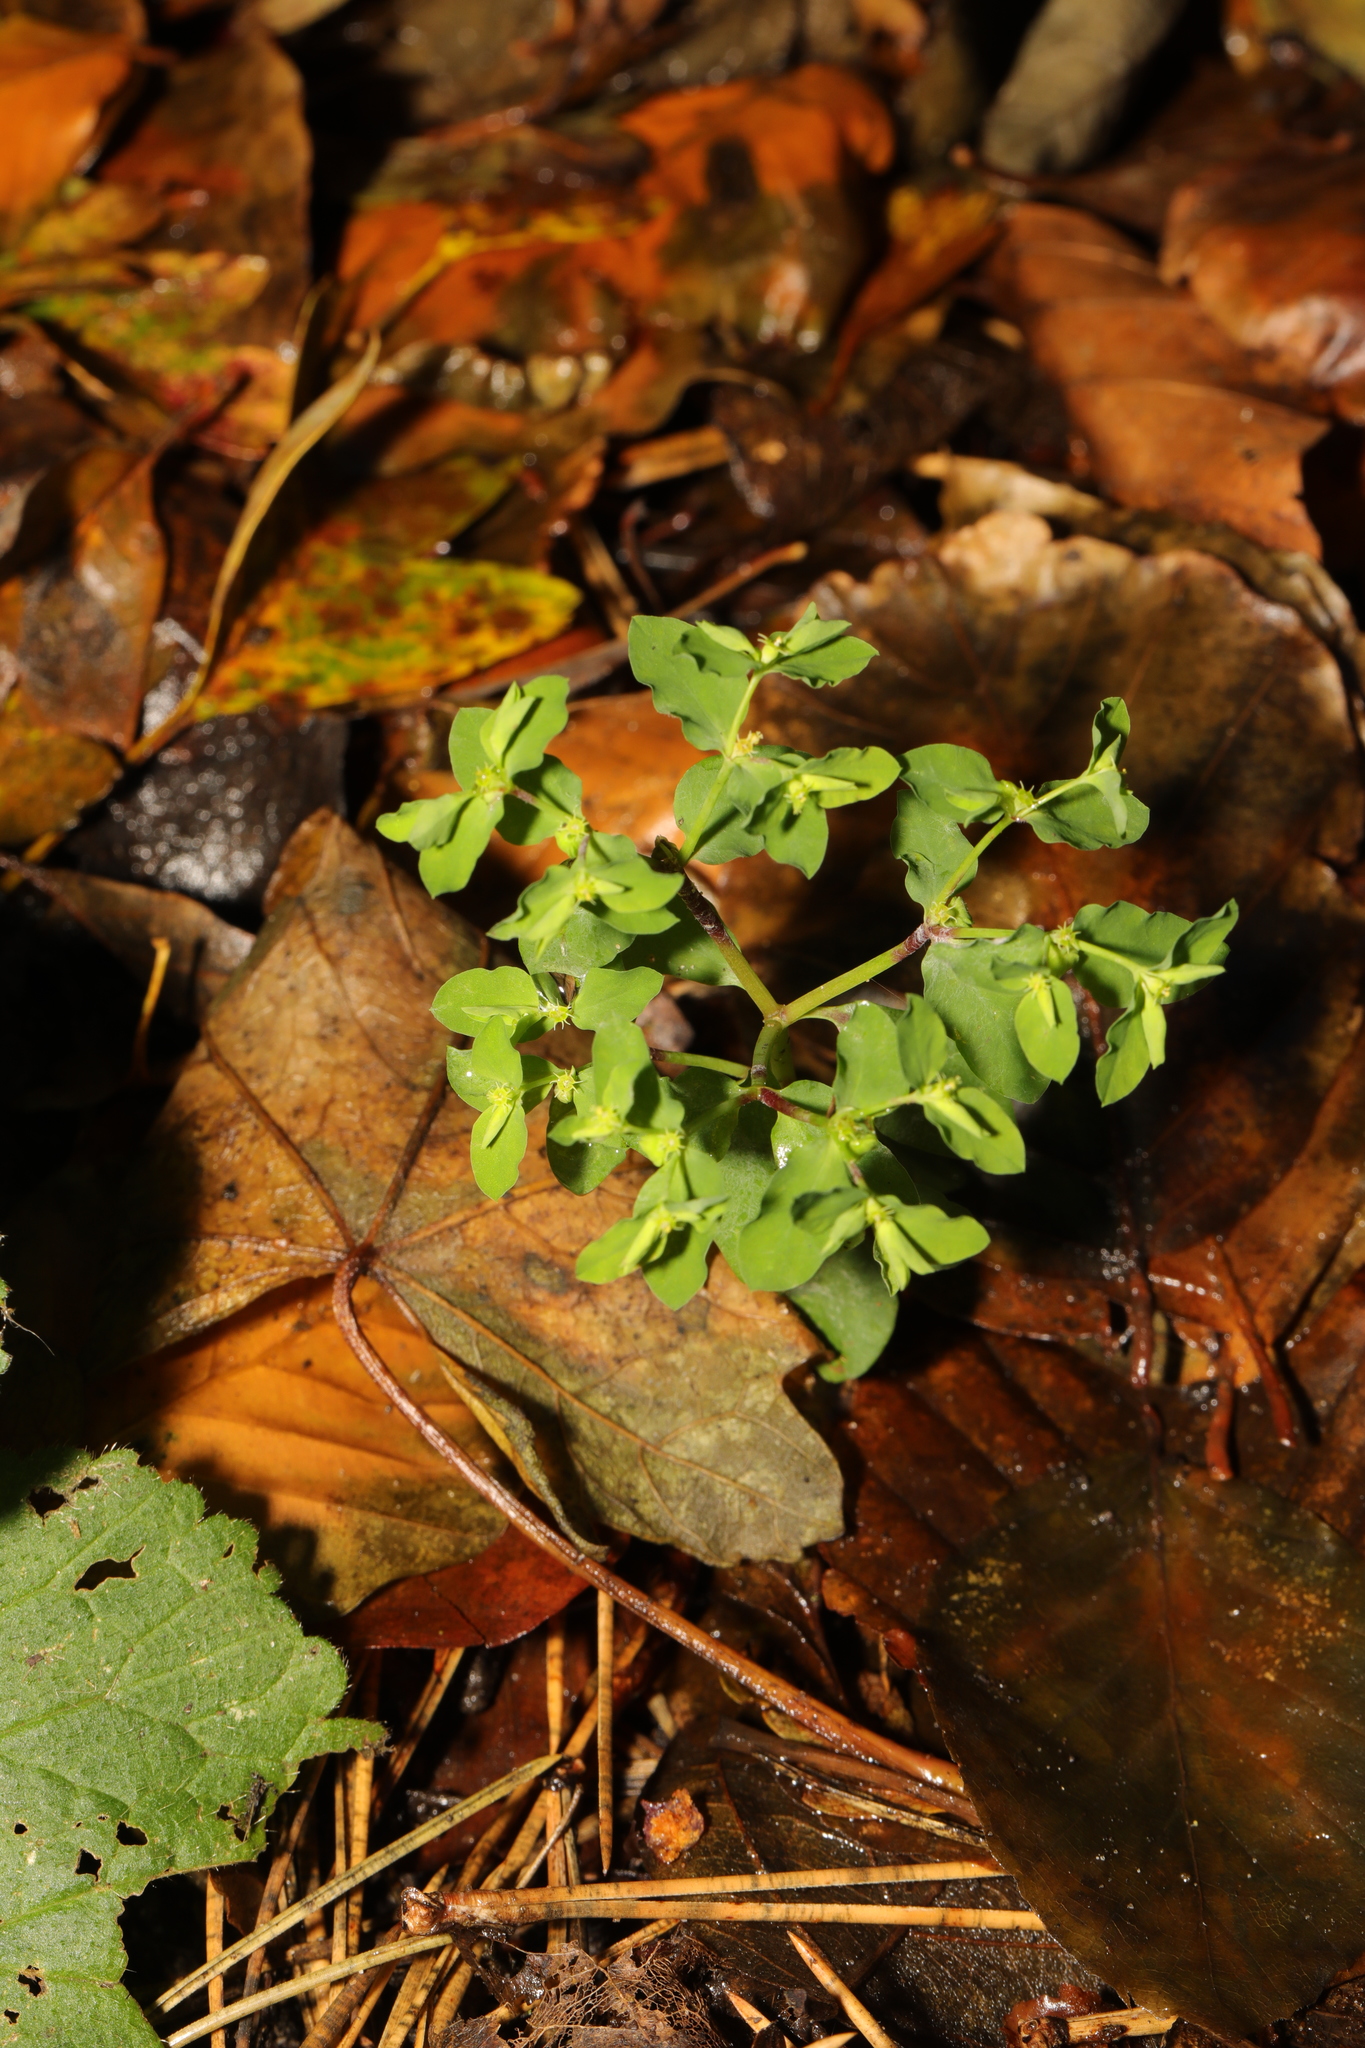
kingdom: Plantae
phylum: Tracheophyta
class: Magnoliopsida
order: Malpighiales
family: Euphorbiaceae
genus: Euphorbia
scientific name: Euphorbia peplus
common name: Petty spurge
